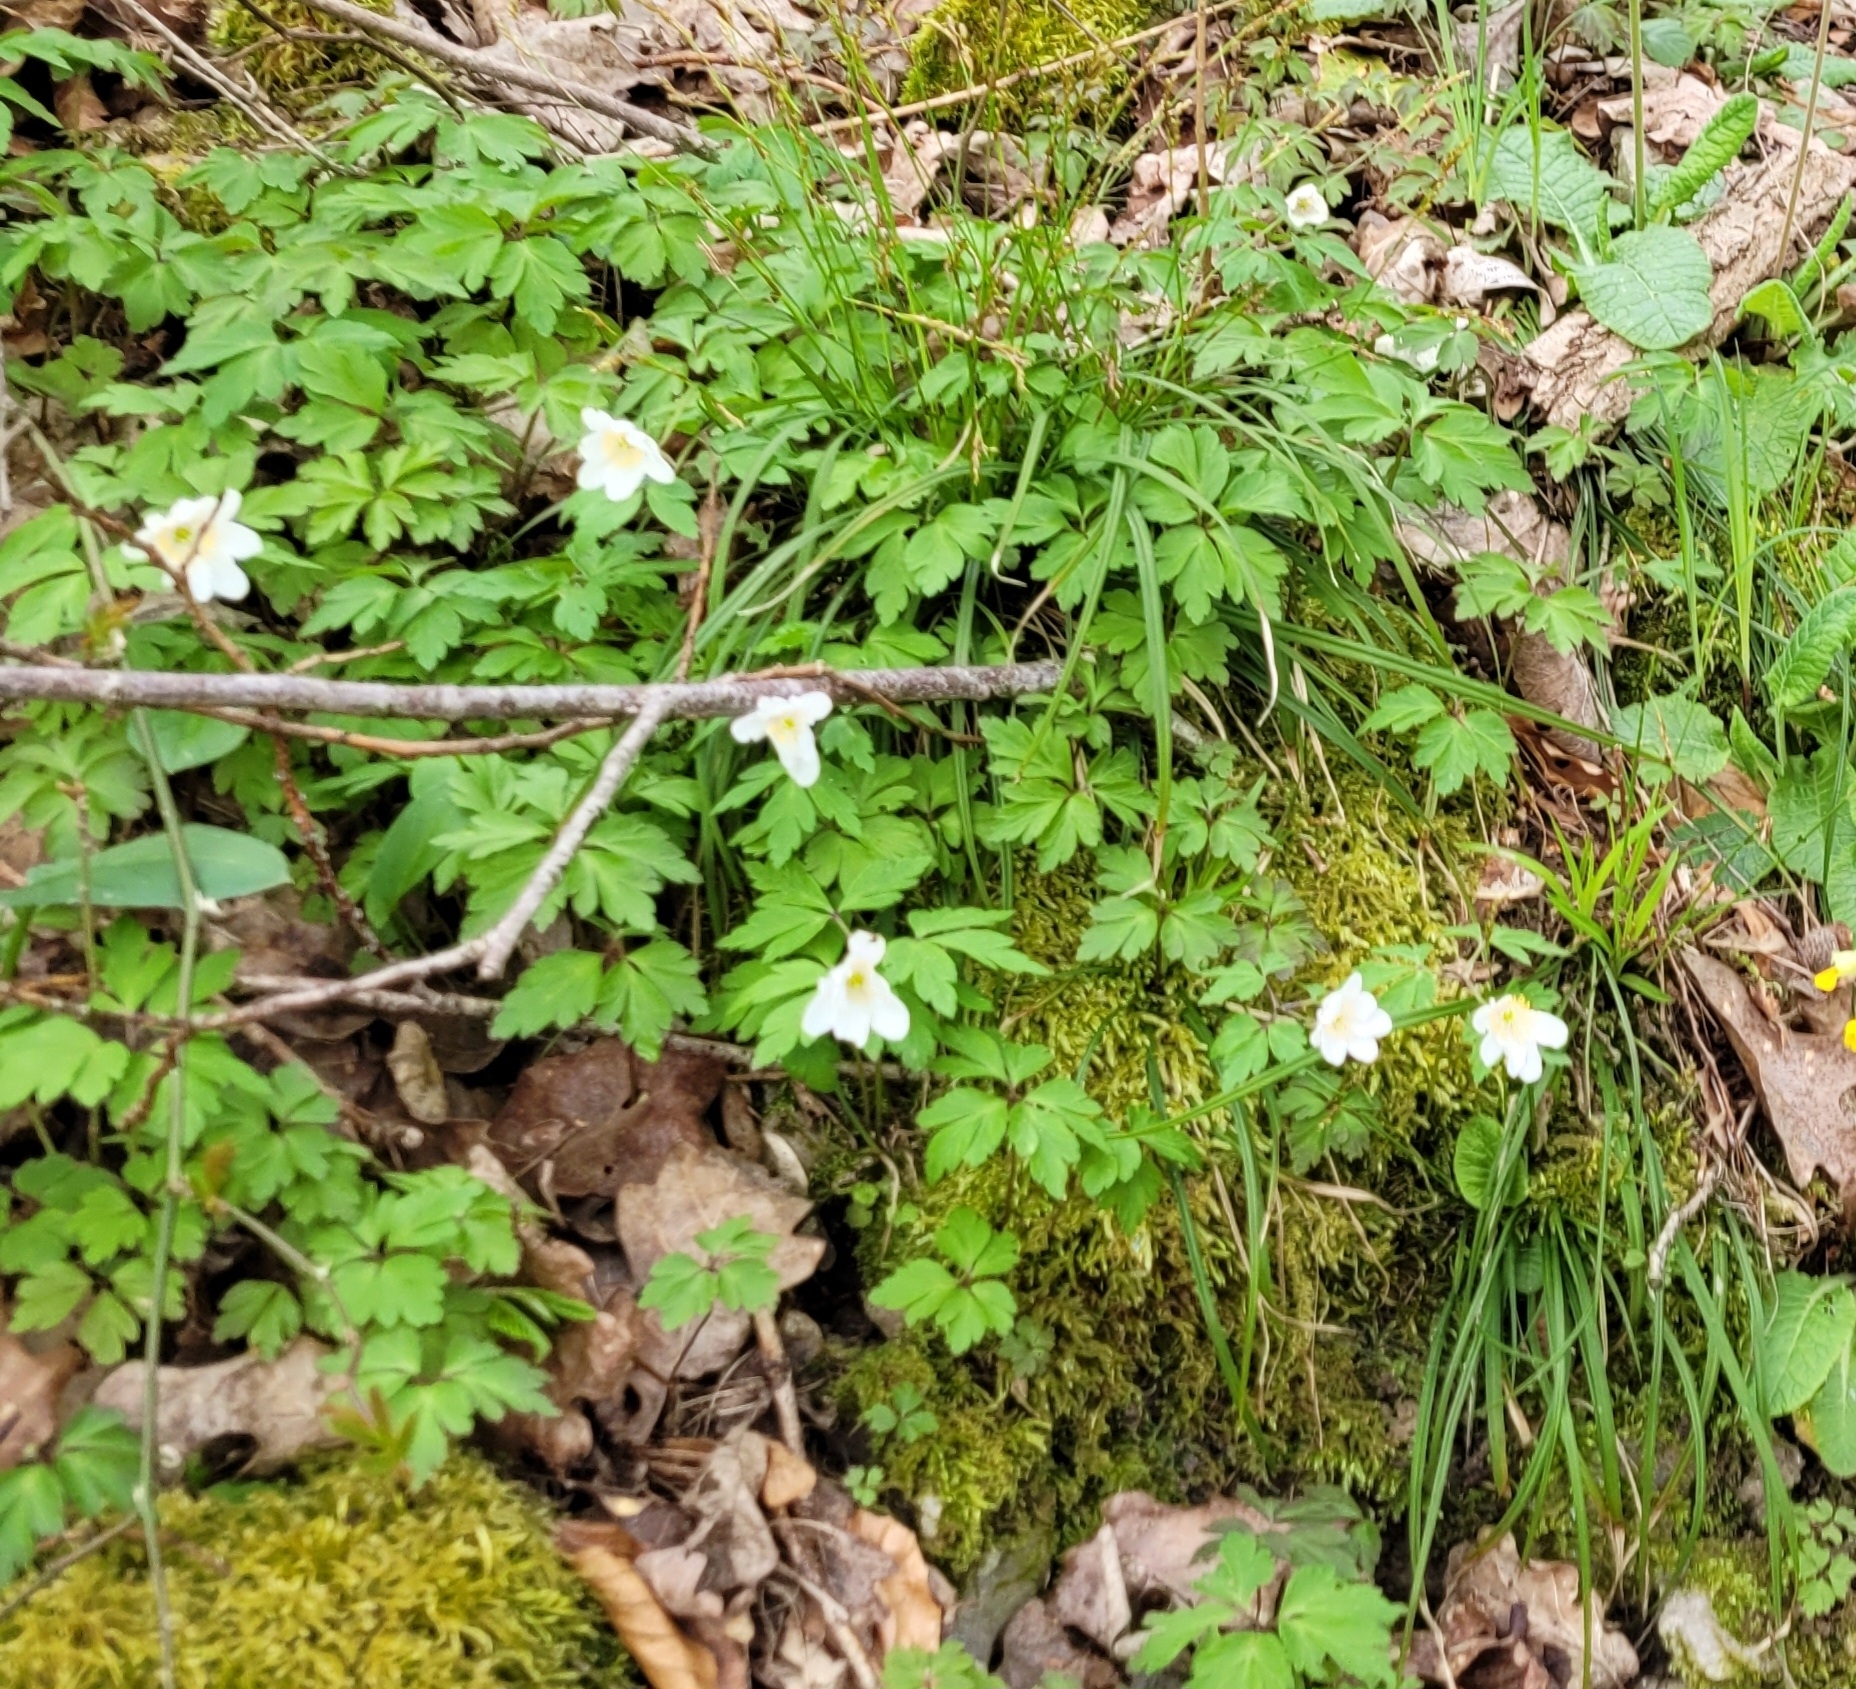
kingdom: Plantae
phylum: Tracheophyta
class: Magnoliopsida
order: Ranunculales
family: Ranunculaceae
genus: Anemone
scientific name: Anemone nemorosa
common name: Wood anemone
